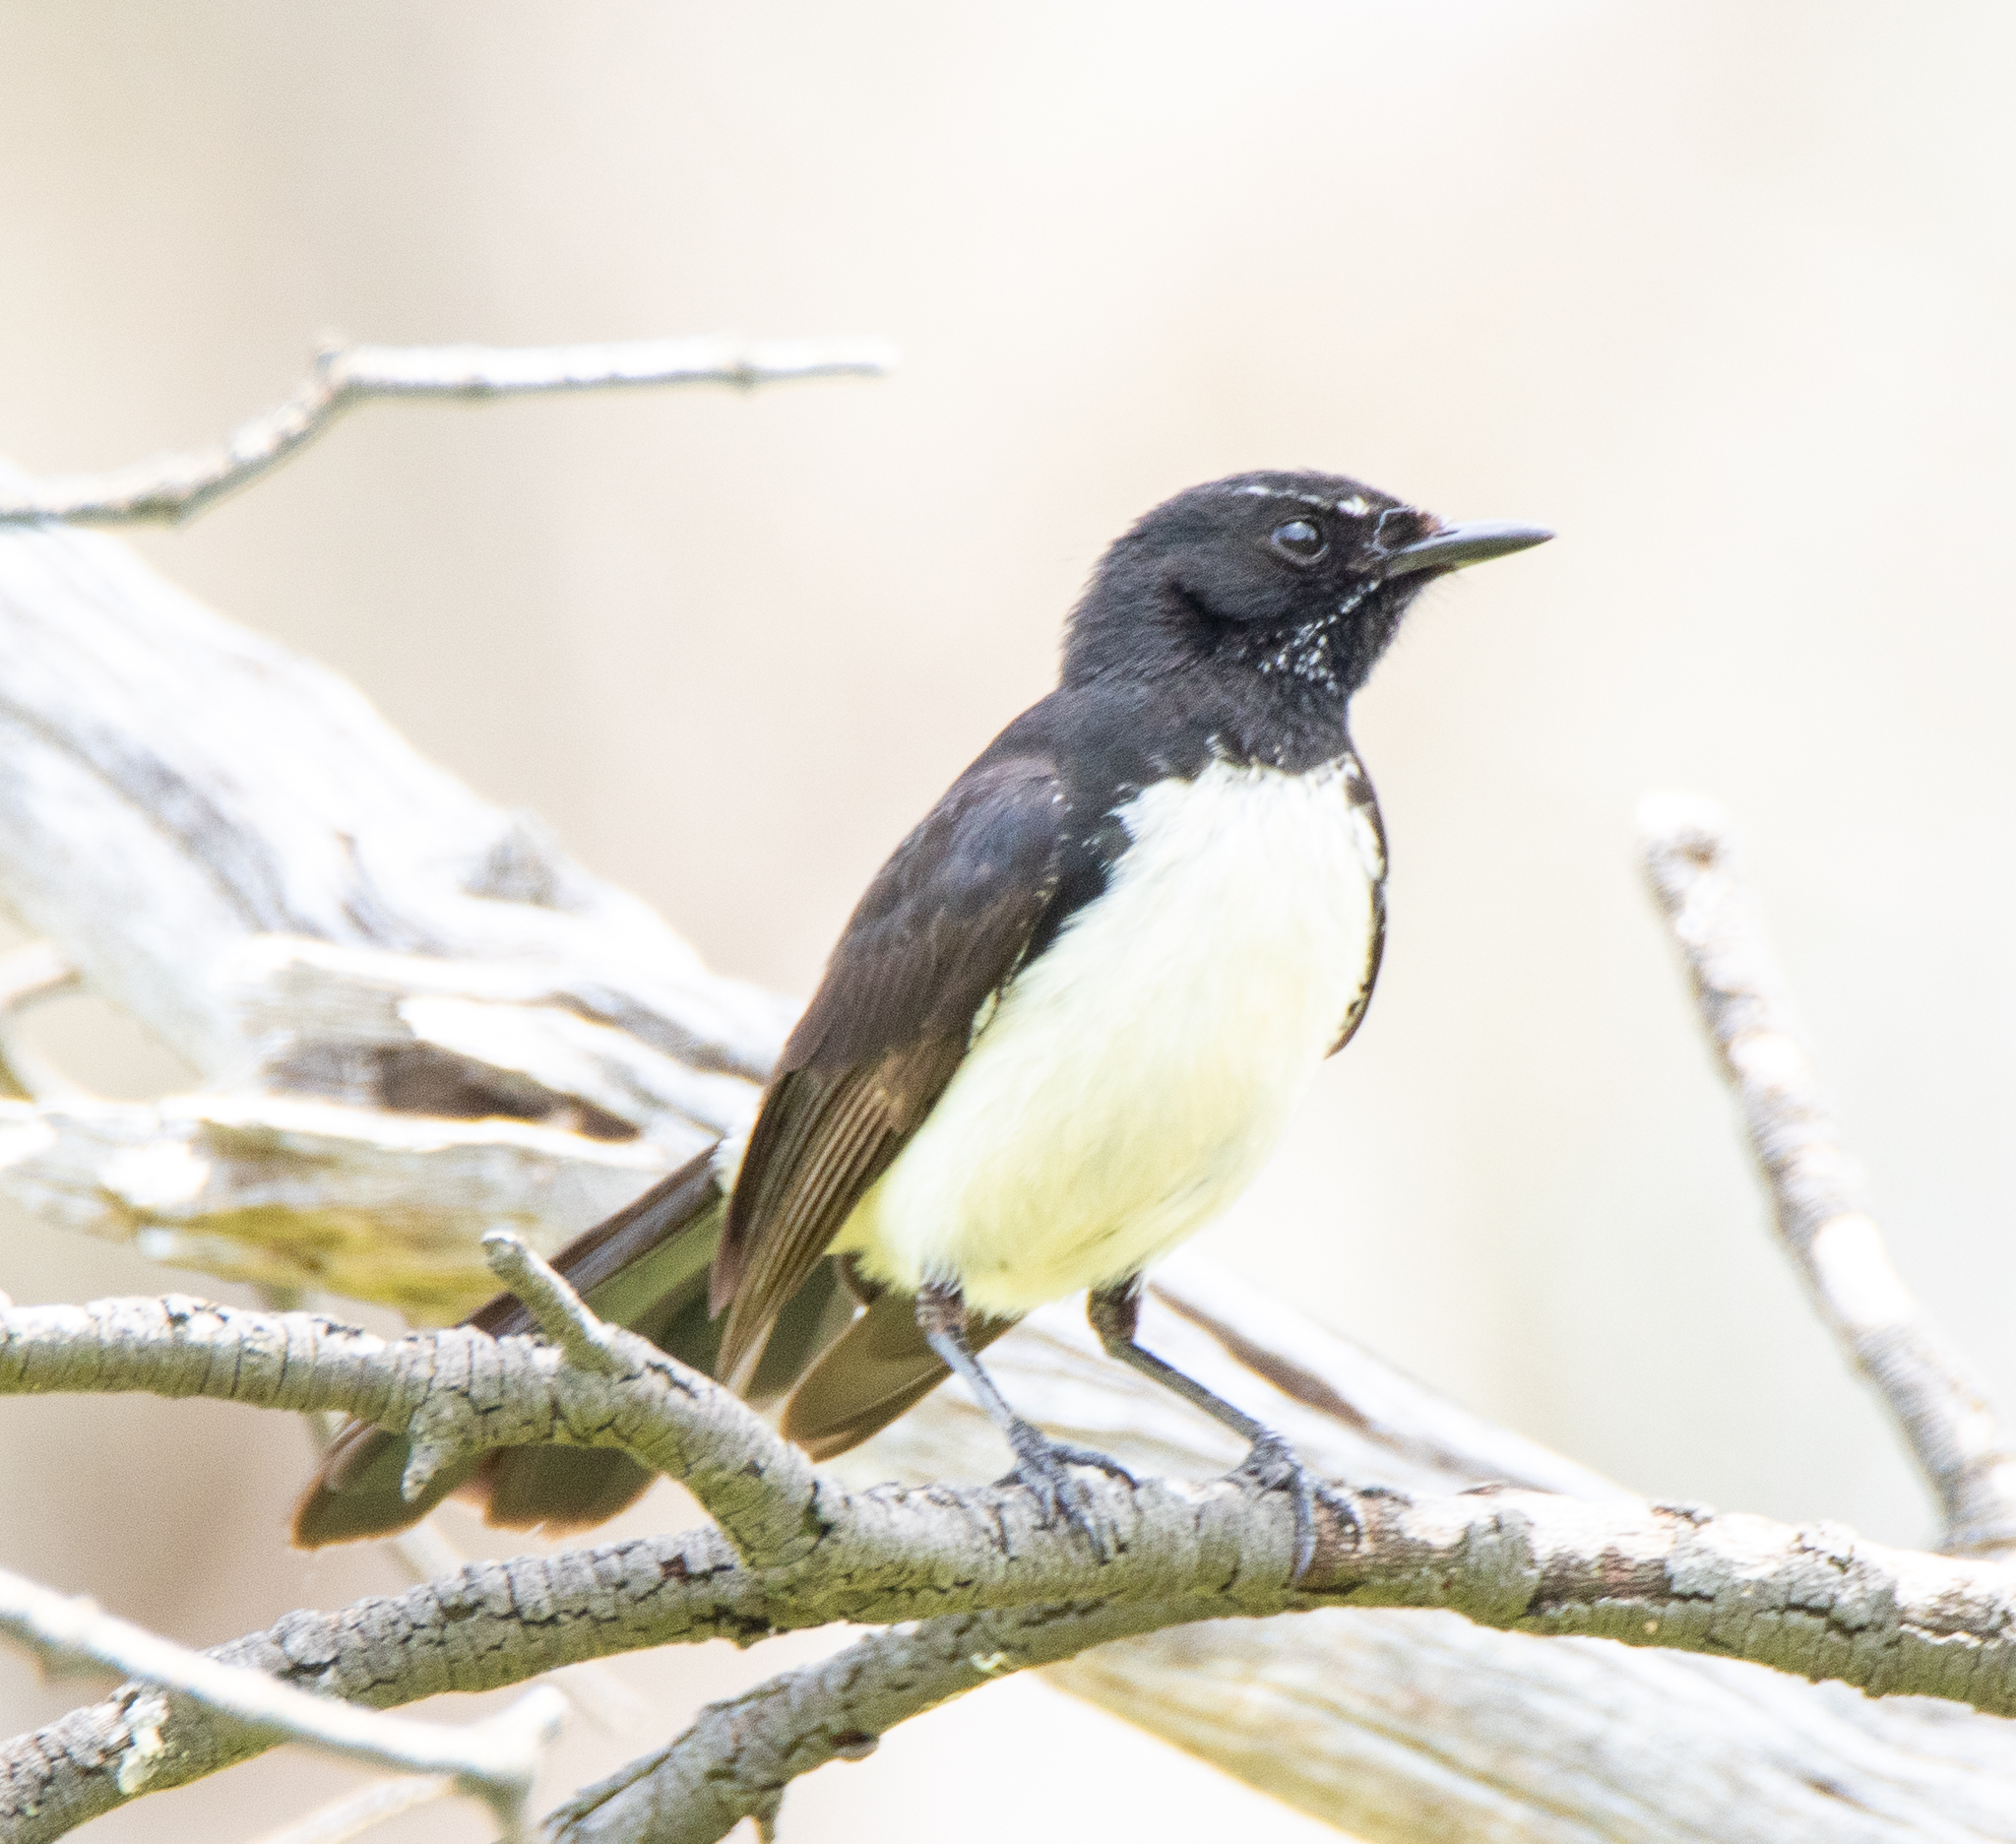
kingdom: Animalia
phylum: Chordata
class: Aves
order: Passeriformes
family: Rhipiduridae
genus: Rhipidura
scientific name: Rhipidura leucophrys
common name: Willie wagtail
